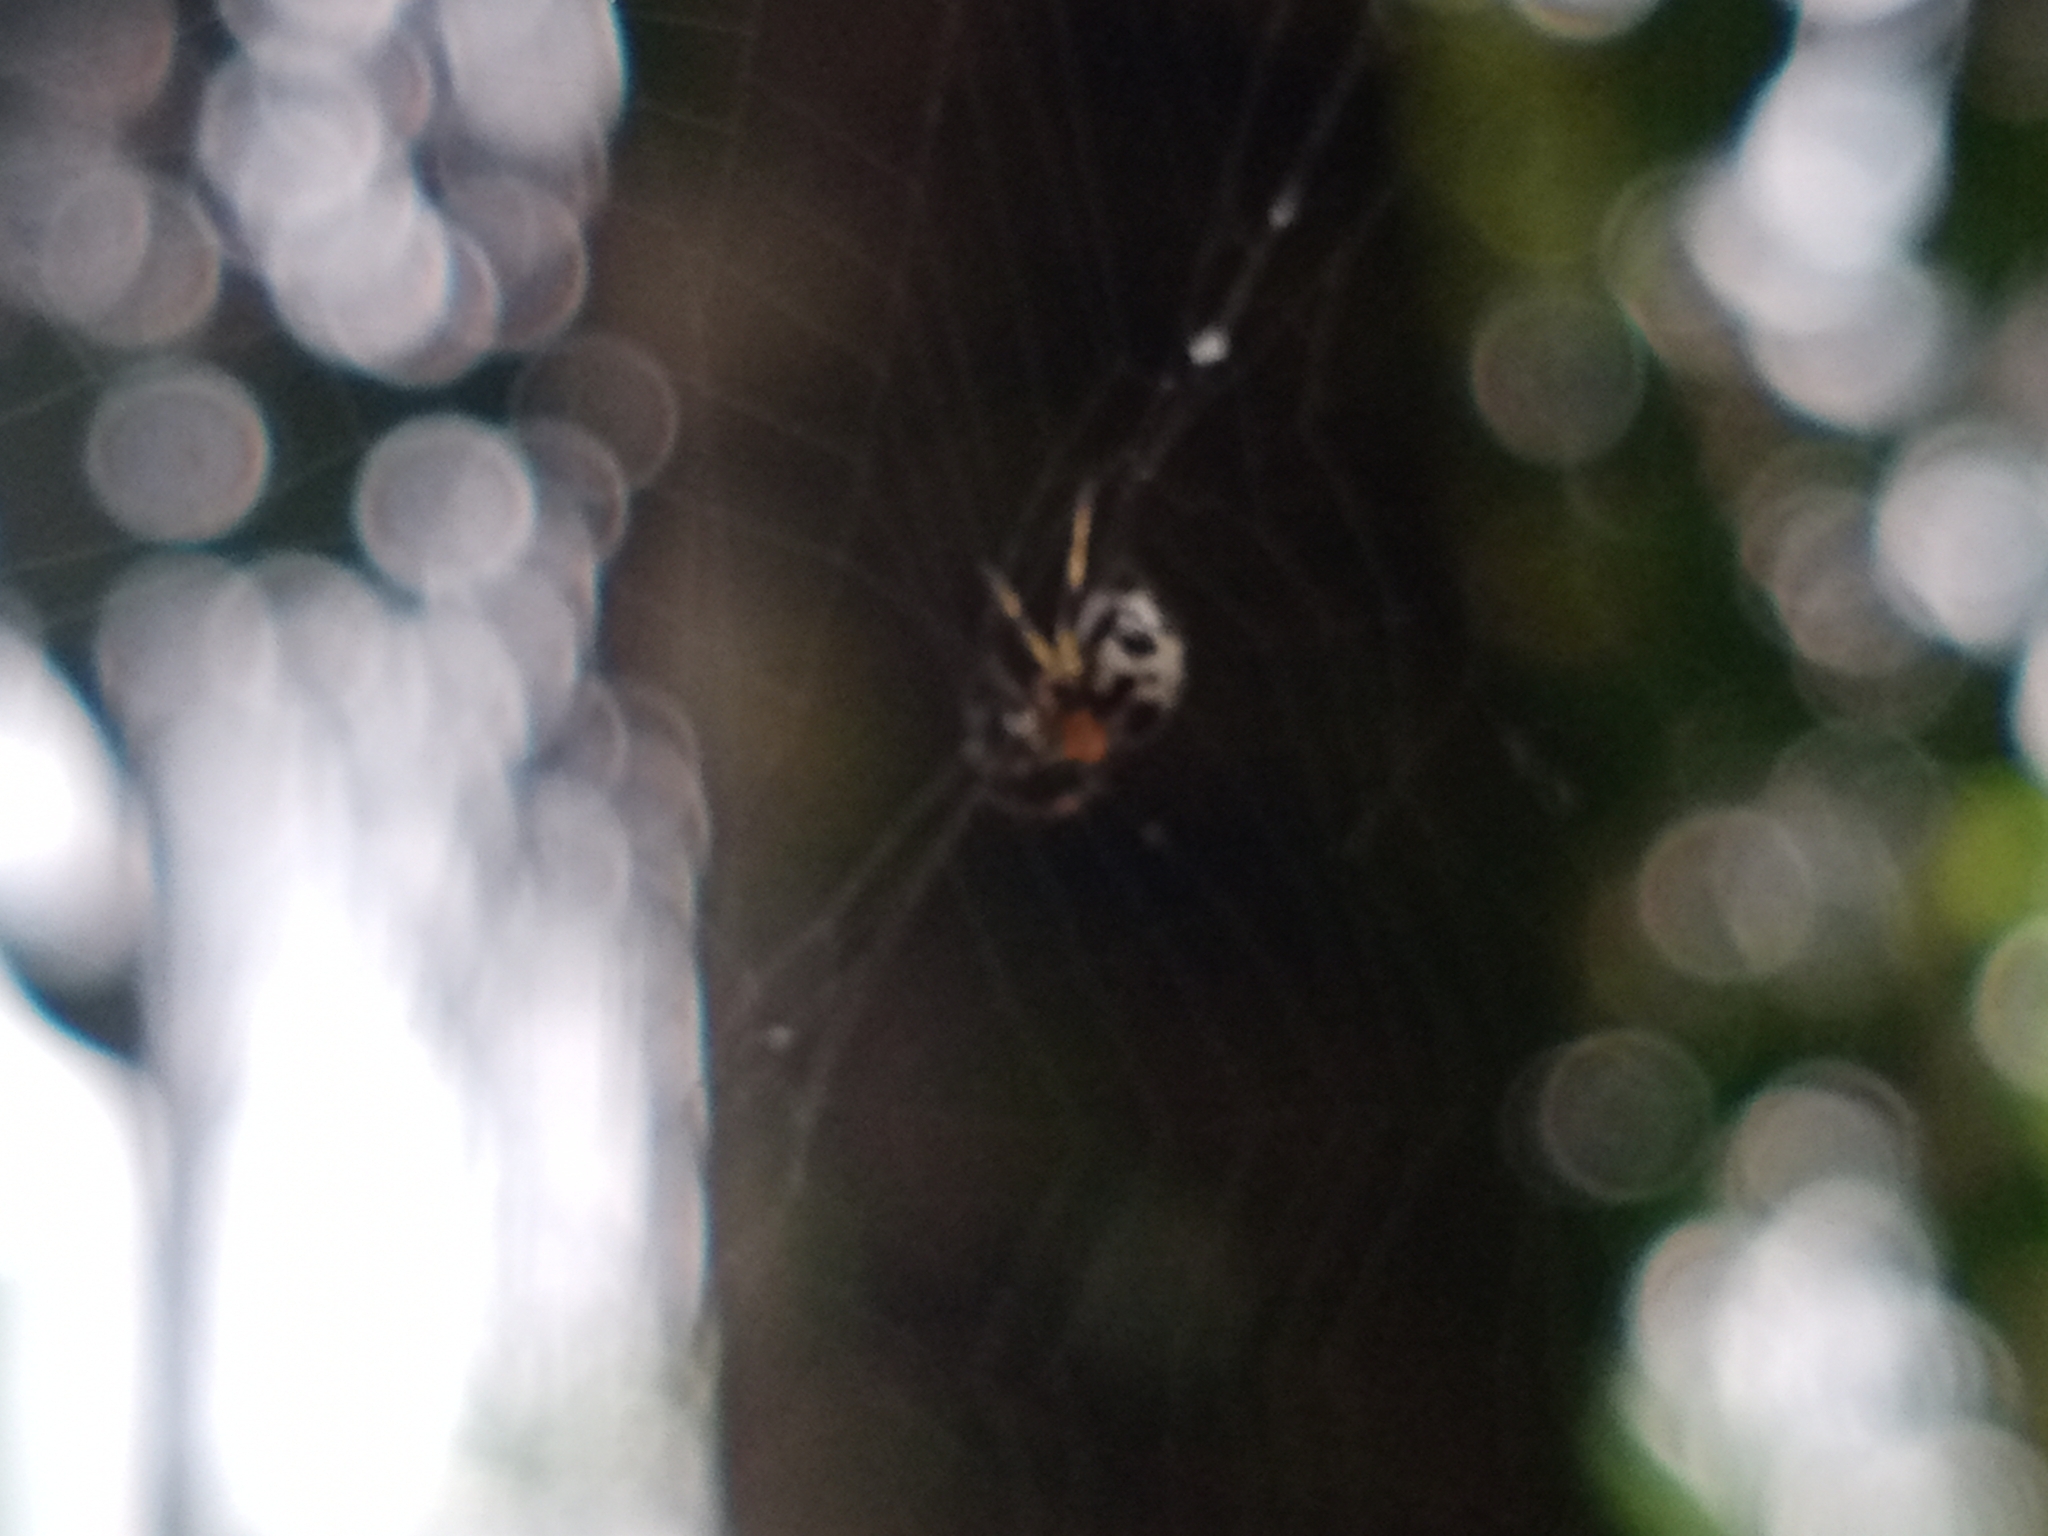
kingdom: Animalia
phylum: Arthropoda
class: Arachnida
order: Araneae
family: Araneidae
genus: Anepsion
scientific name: Anepsion maritatum
